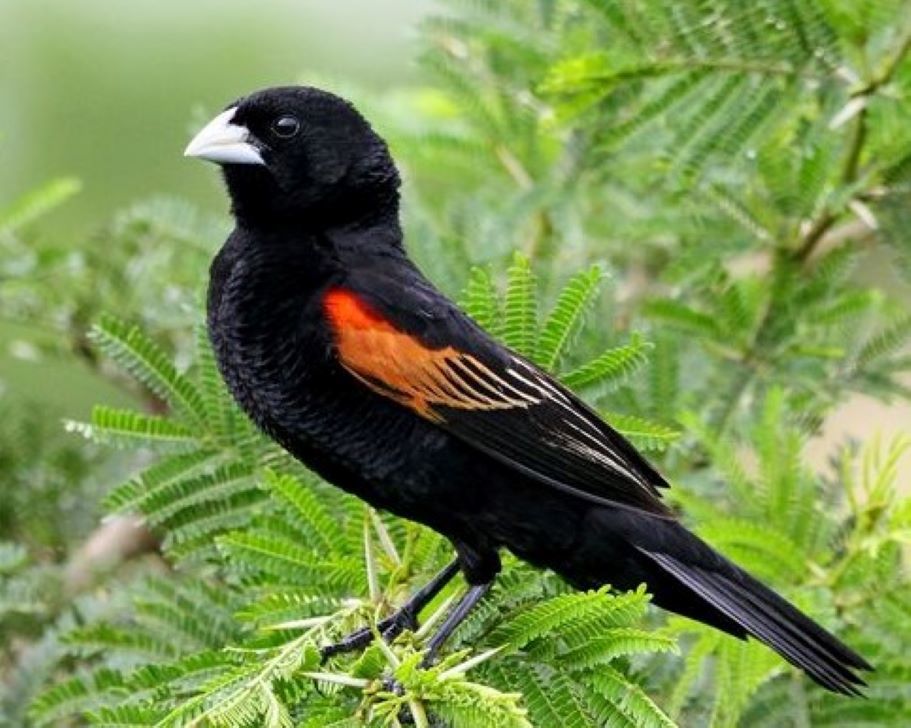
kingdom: Animalia
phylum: Chordata
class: Aves
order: Passeriformes
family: Ploceidae
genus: Euplectes
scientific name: Euplectes axillaris
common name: Fan-tailed widowbird
